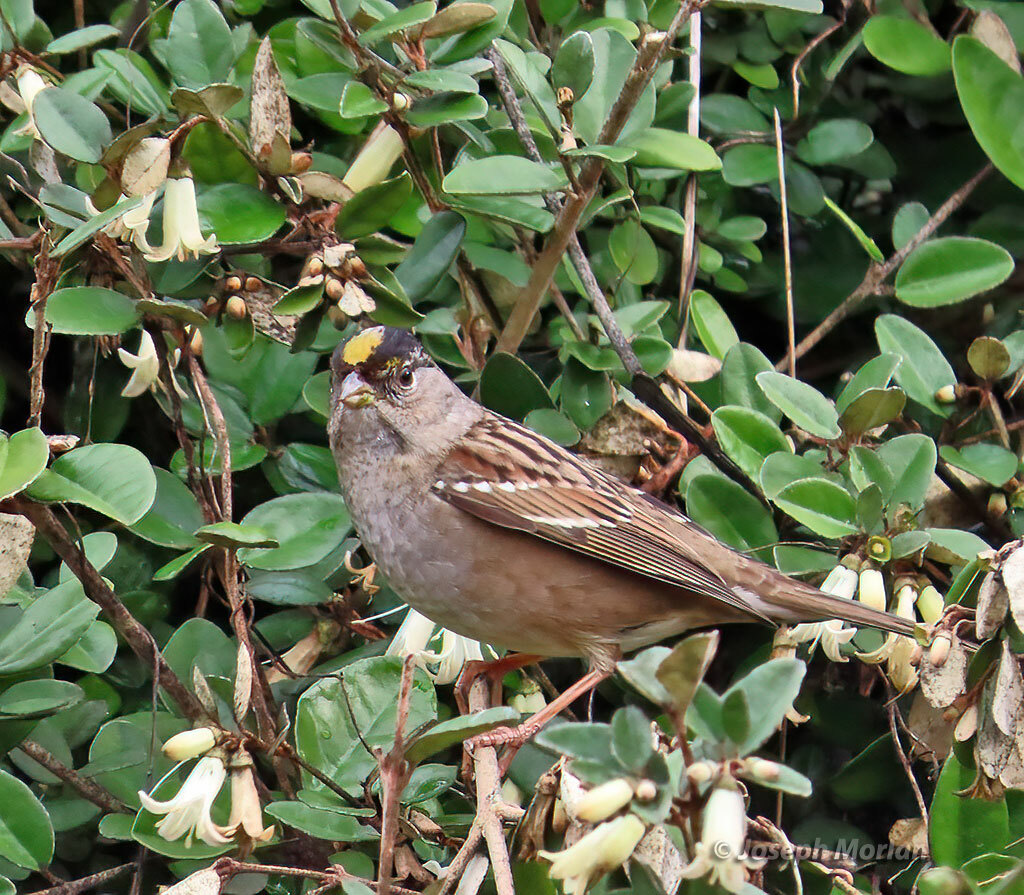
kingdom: Animalia
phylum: Chordata
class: Aves
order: Passeriformes
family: Passerellidae
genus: Zonotrichia
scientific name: Zonotrichia atricapilla
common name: Golden-crowned sparrow
